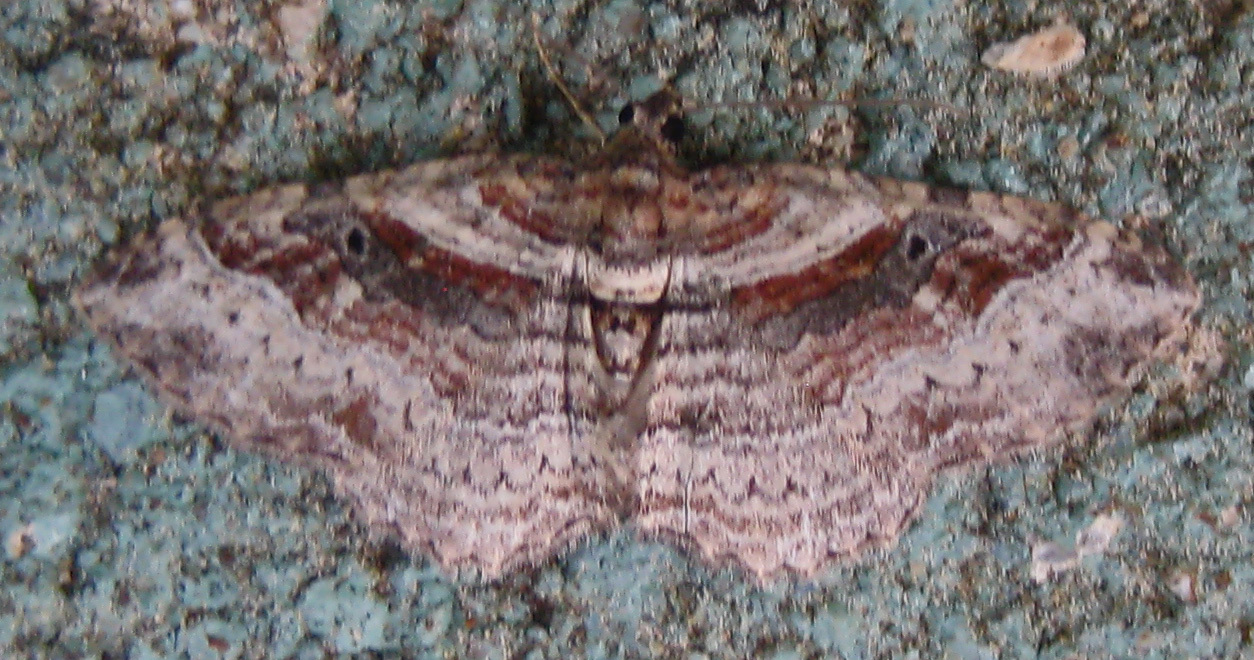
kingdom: Animalia
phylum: Arthropoda
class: Insecta
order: Lepidoptera
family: Geometridae
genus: Costaconvexa
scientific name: Costaconvexa centrostrigaria
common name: Bent-line carpet
